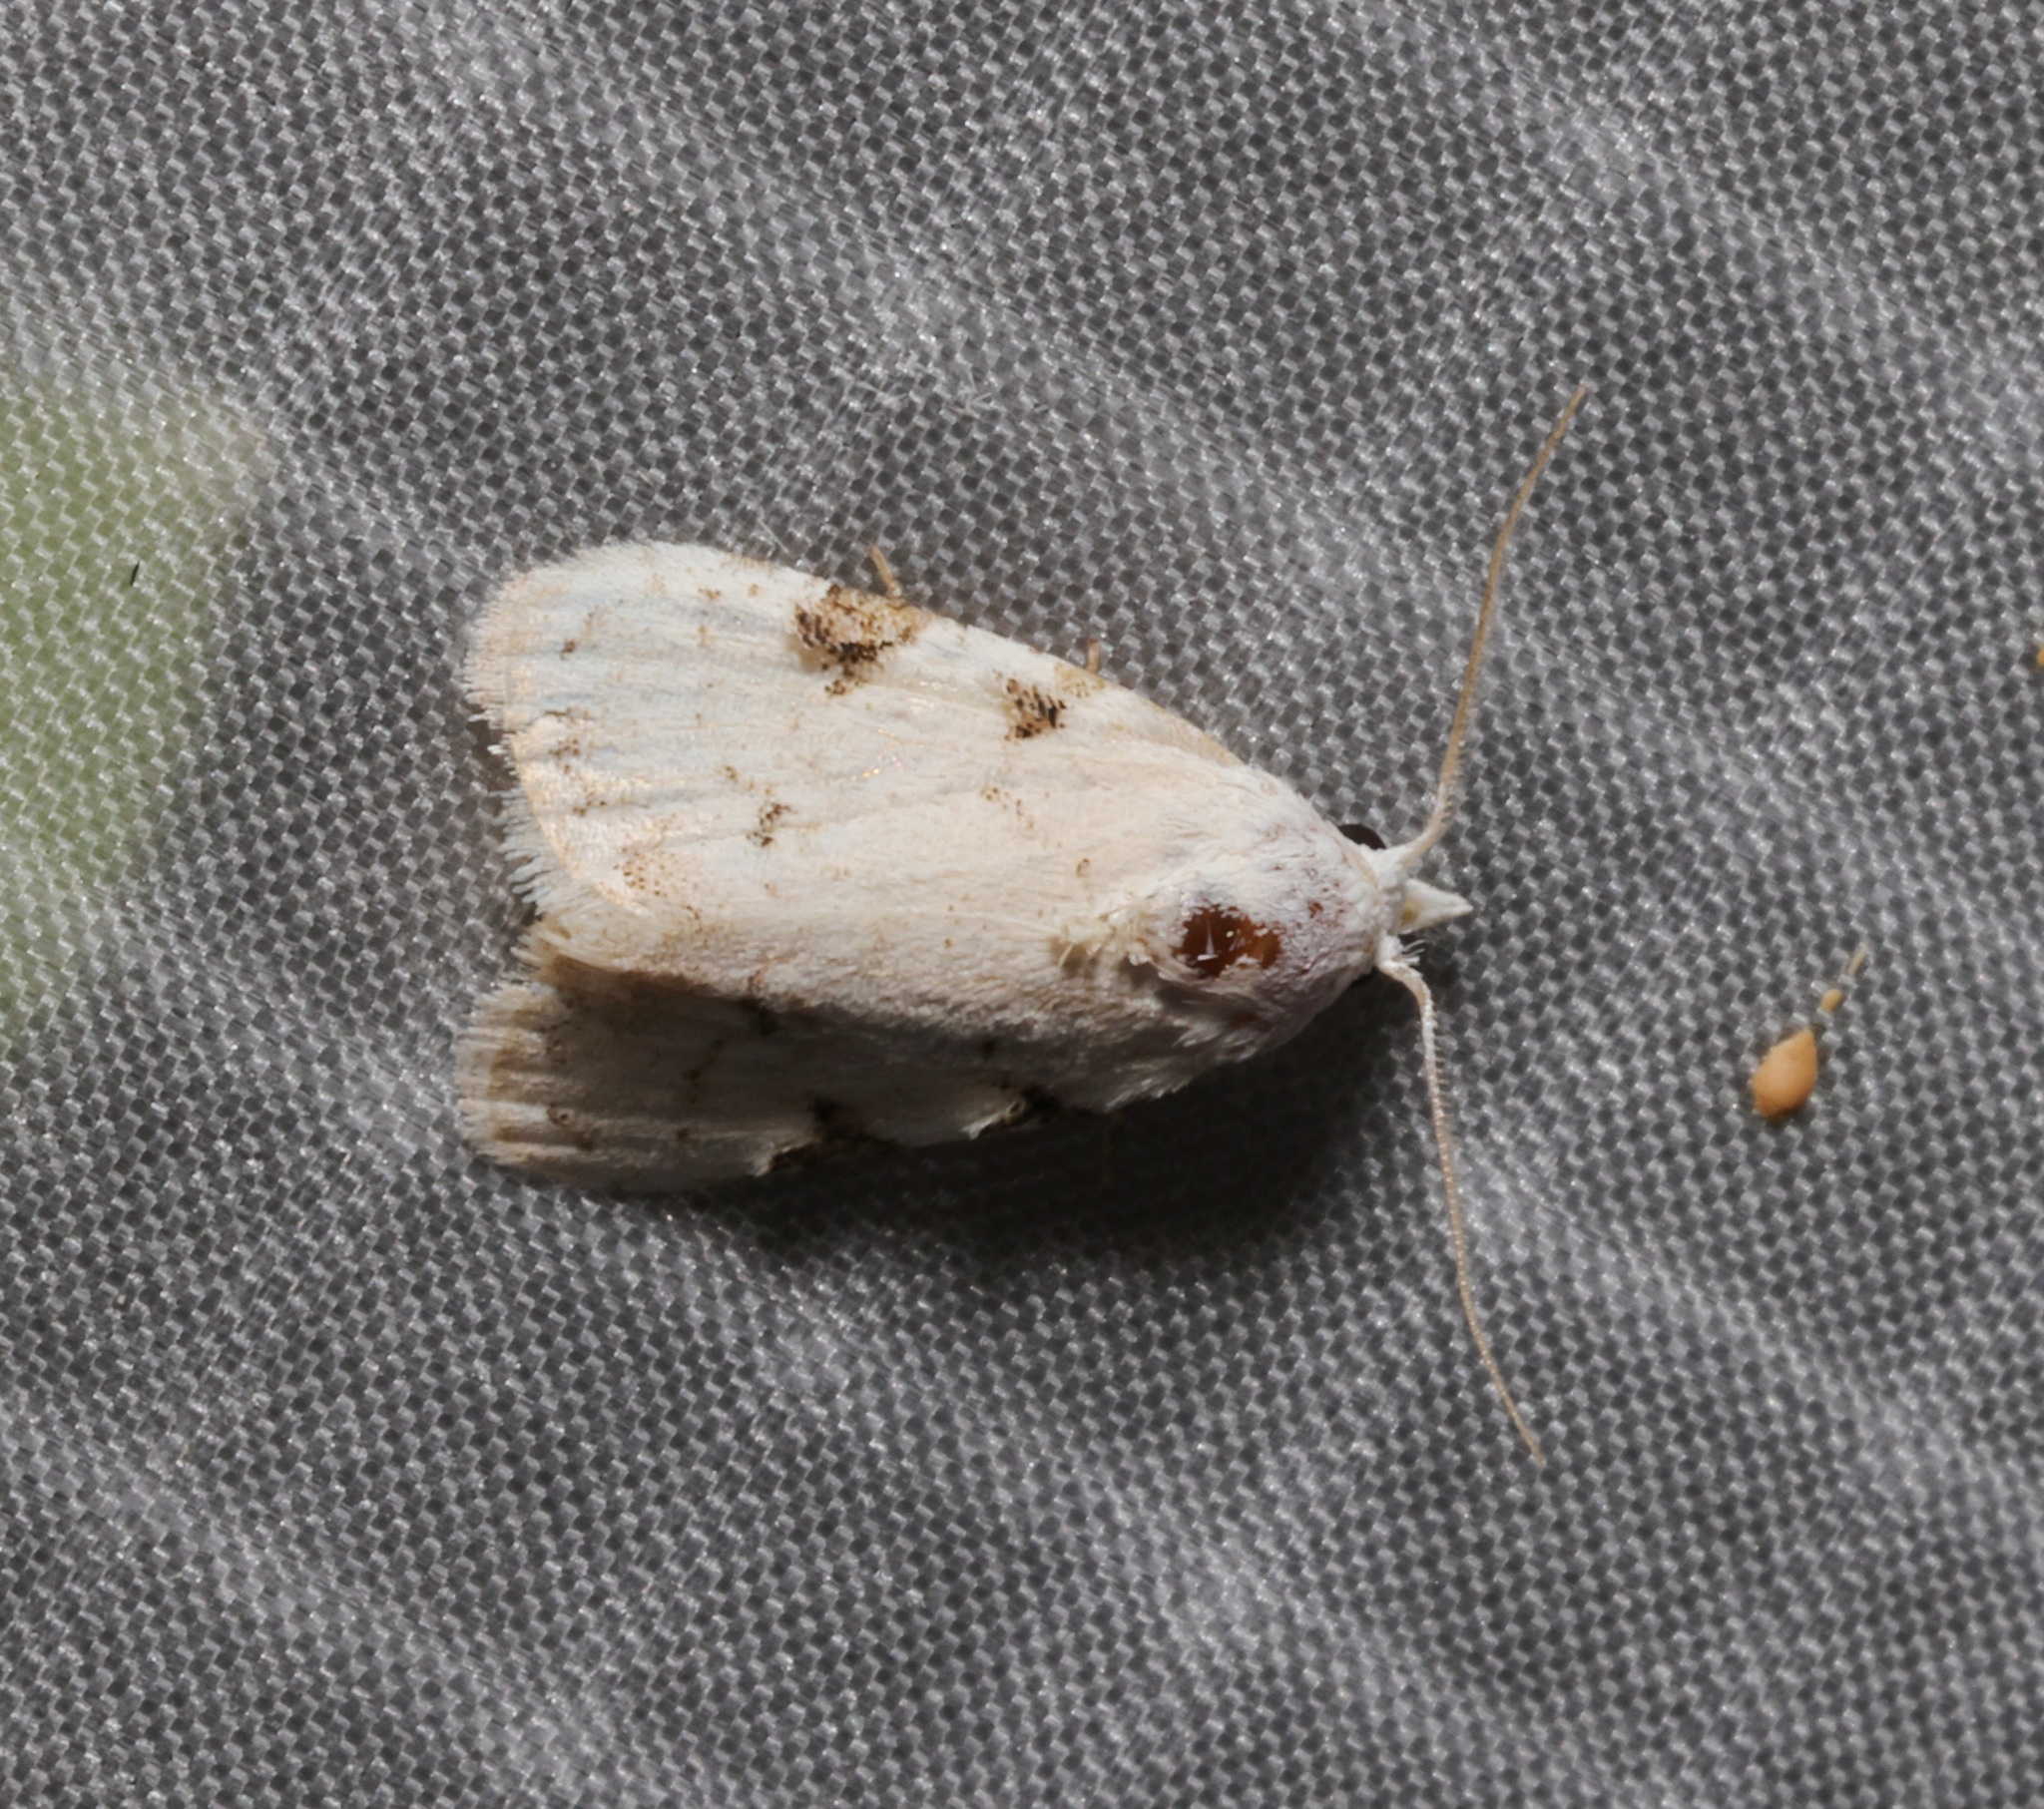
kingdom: Animalia
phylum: Arthropoda
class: Insecta
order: Lepidoptera
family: Nolidae
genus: Nola
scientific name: Nola pascua
